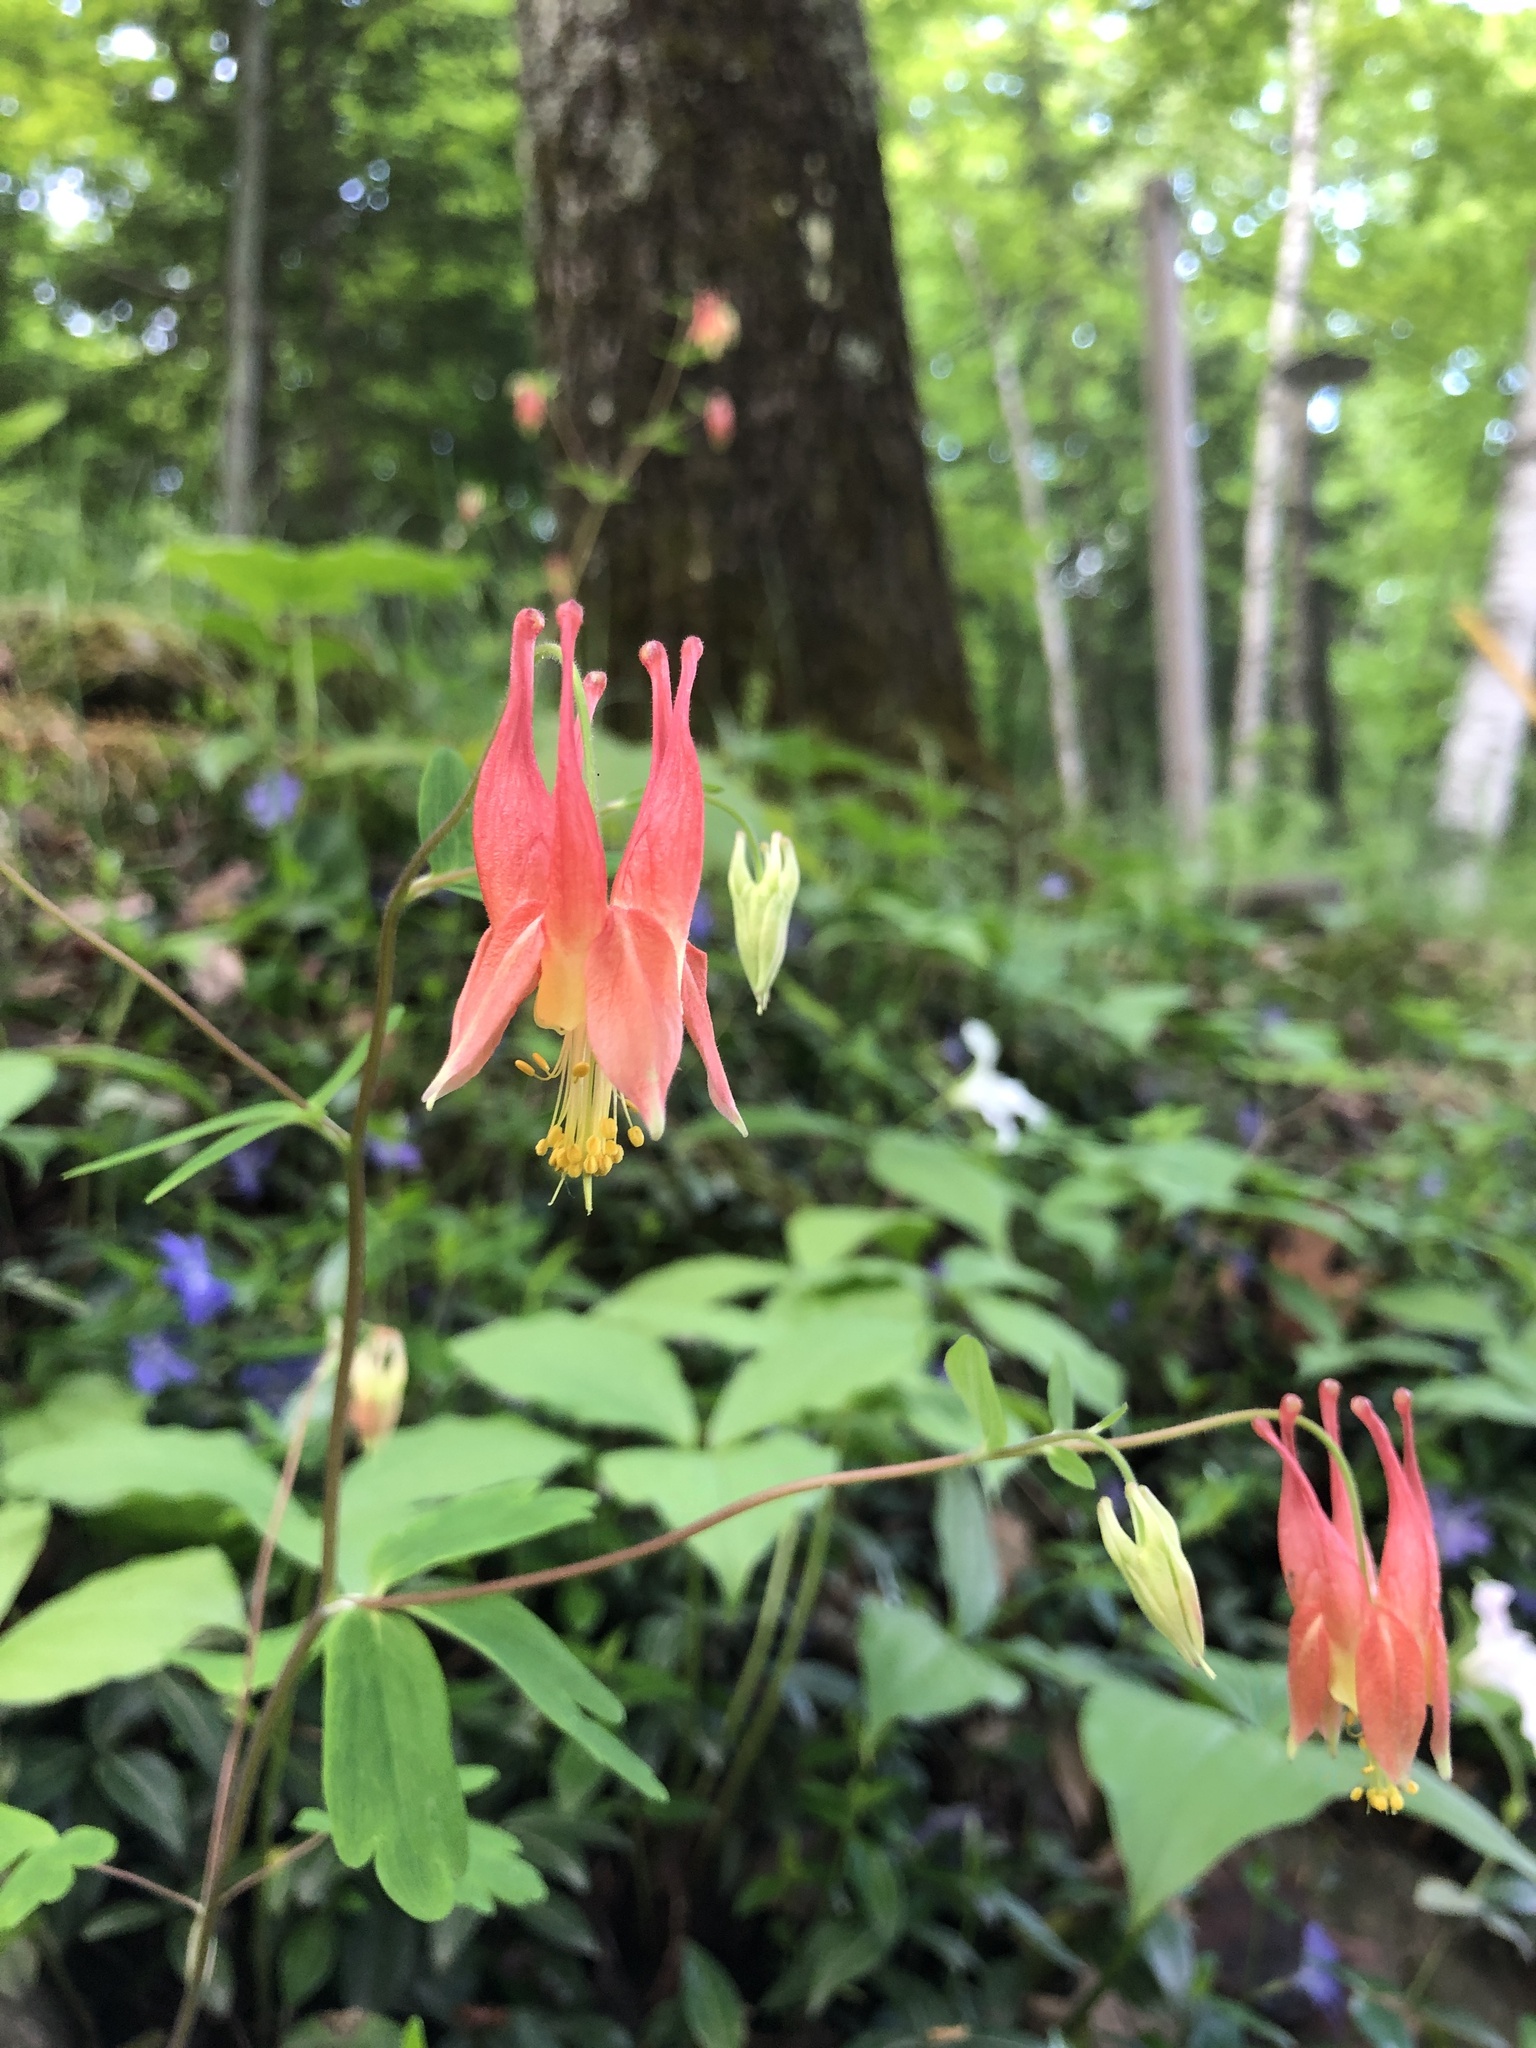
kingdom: Plantae
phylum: Tracheophyta
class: Magnoliopsida
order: Ranunculales
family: Ranunculaceae
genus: Aquilegia
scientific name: Aquilegia canadensis
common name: American columbine
